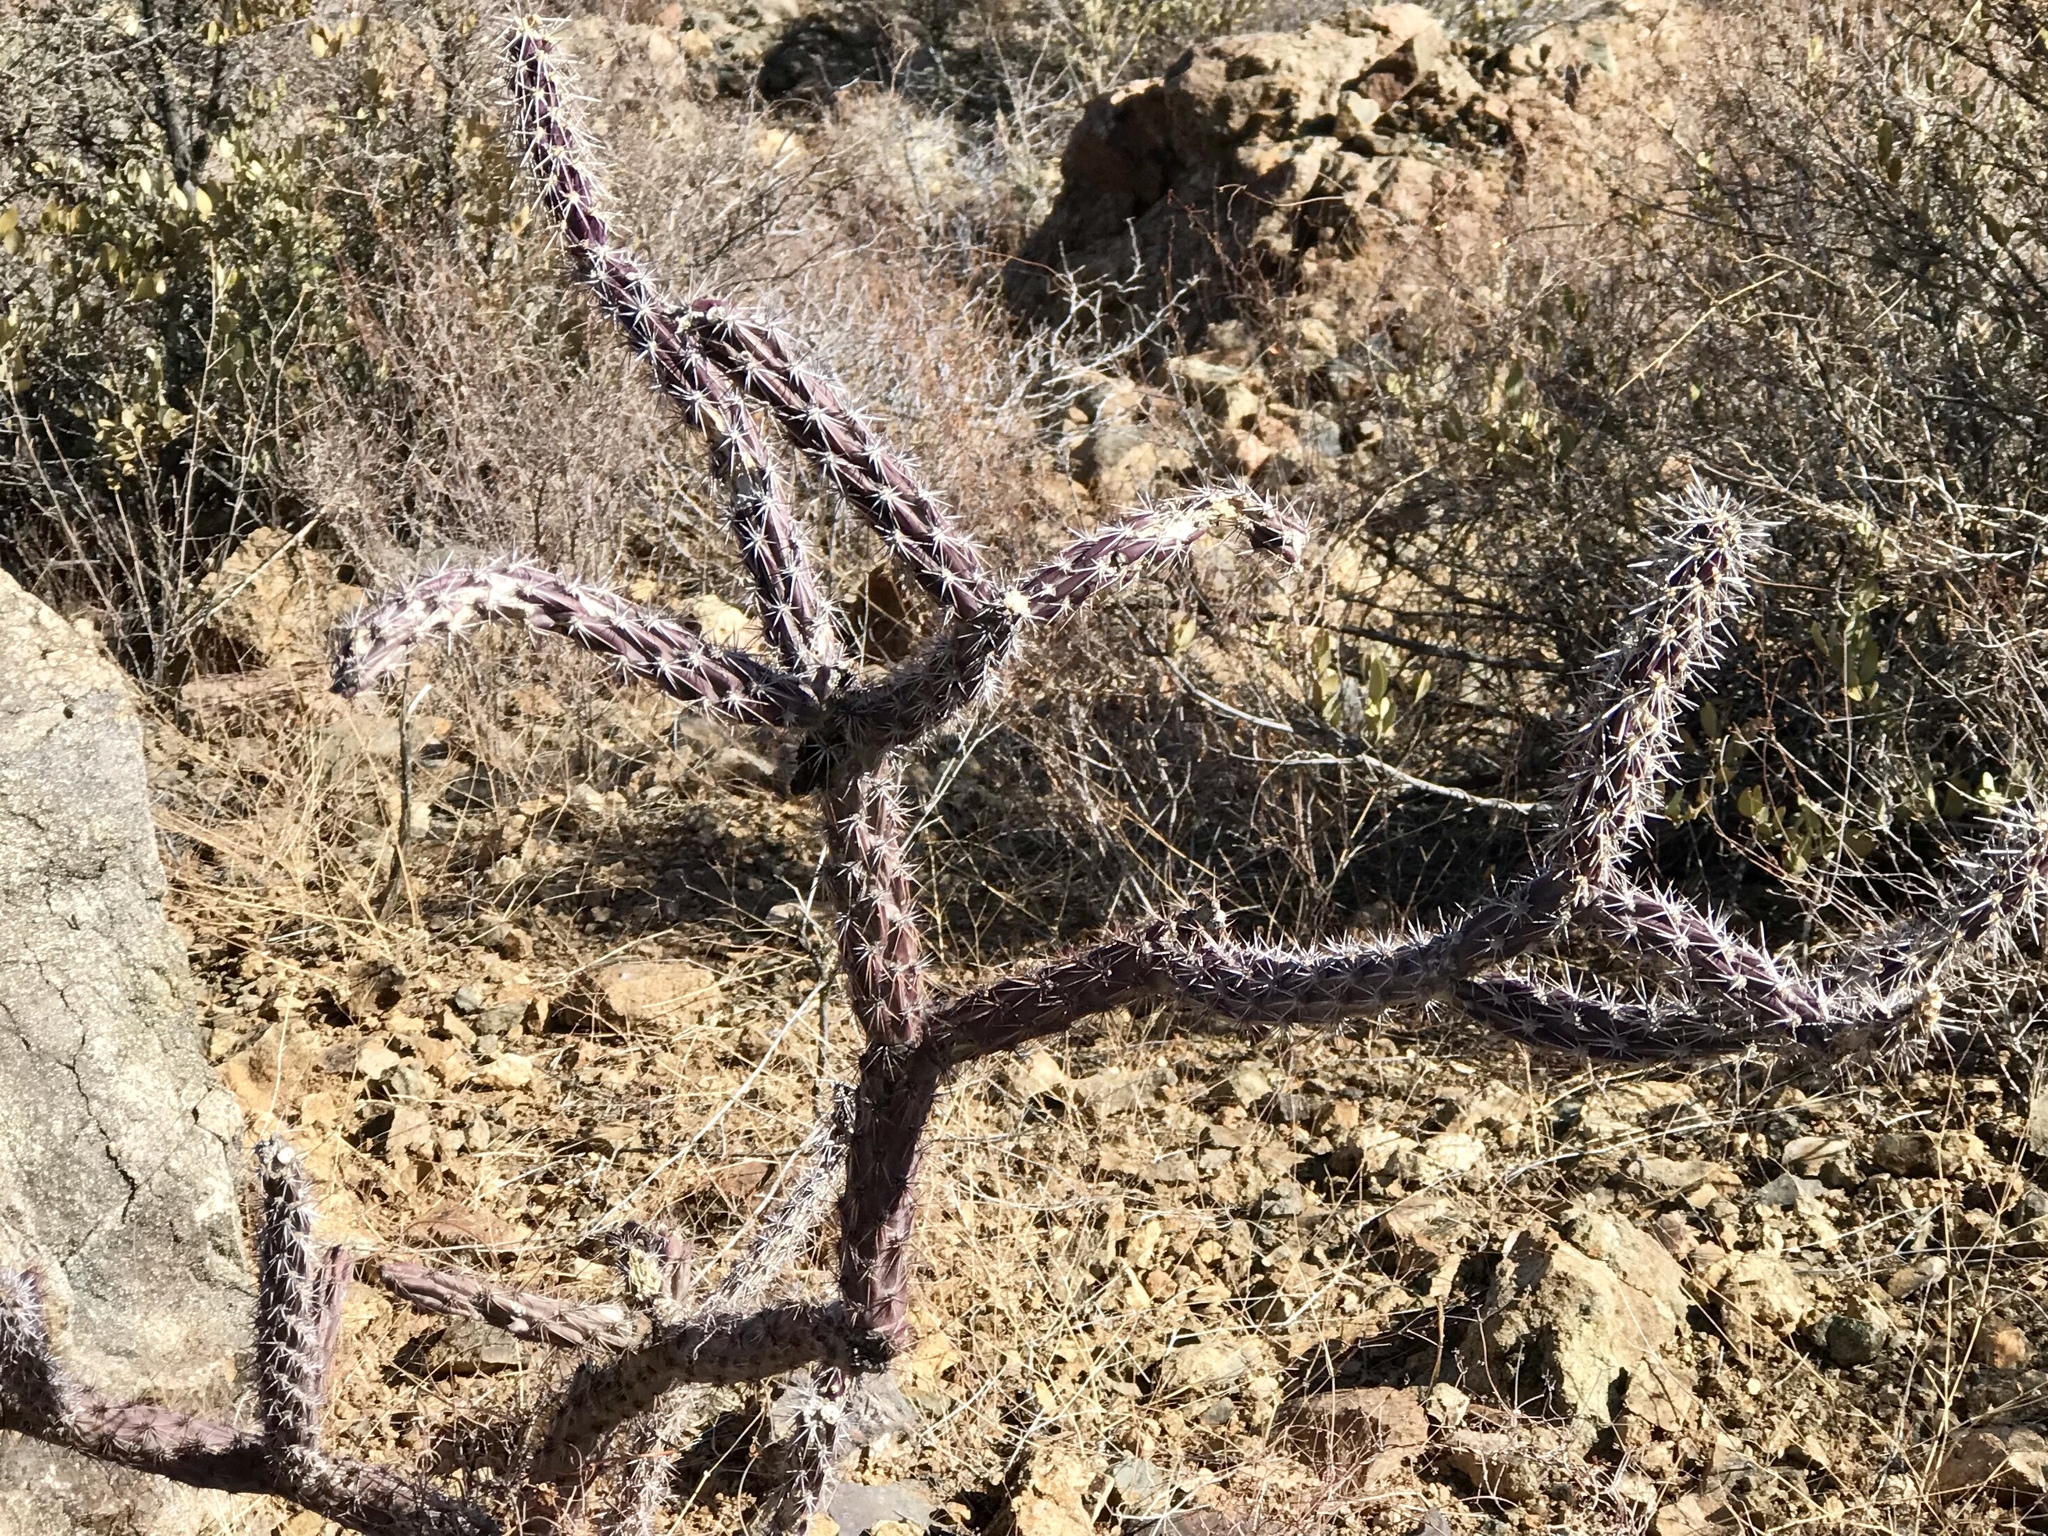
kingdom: Plantae
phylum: Tracheophyta
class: Magnoliopsida
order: Caryophyllales
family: Cactaceae
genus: Cylindropuntia
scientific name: Cylindropuntia thurberi
